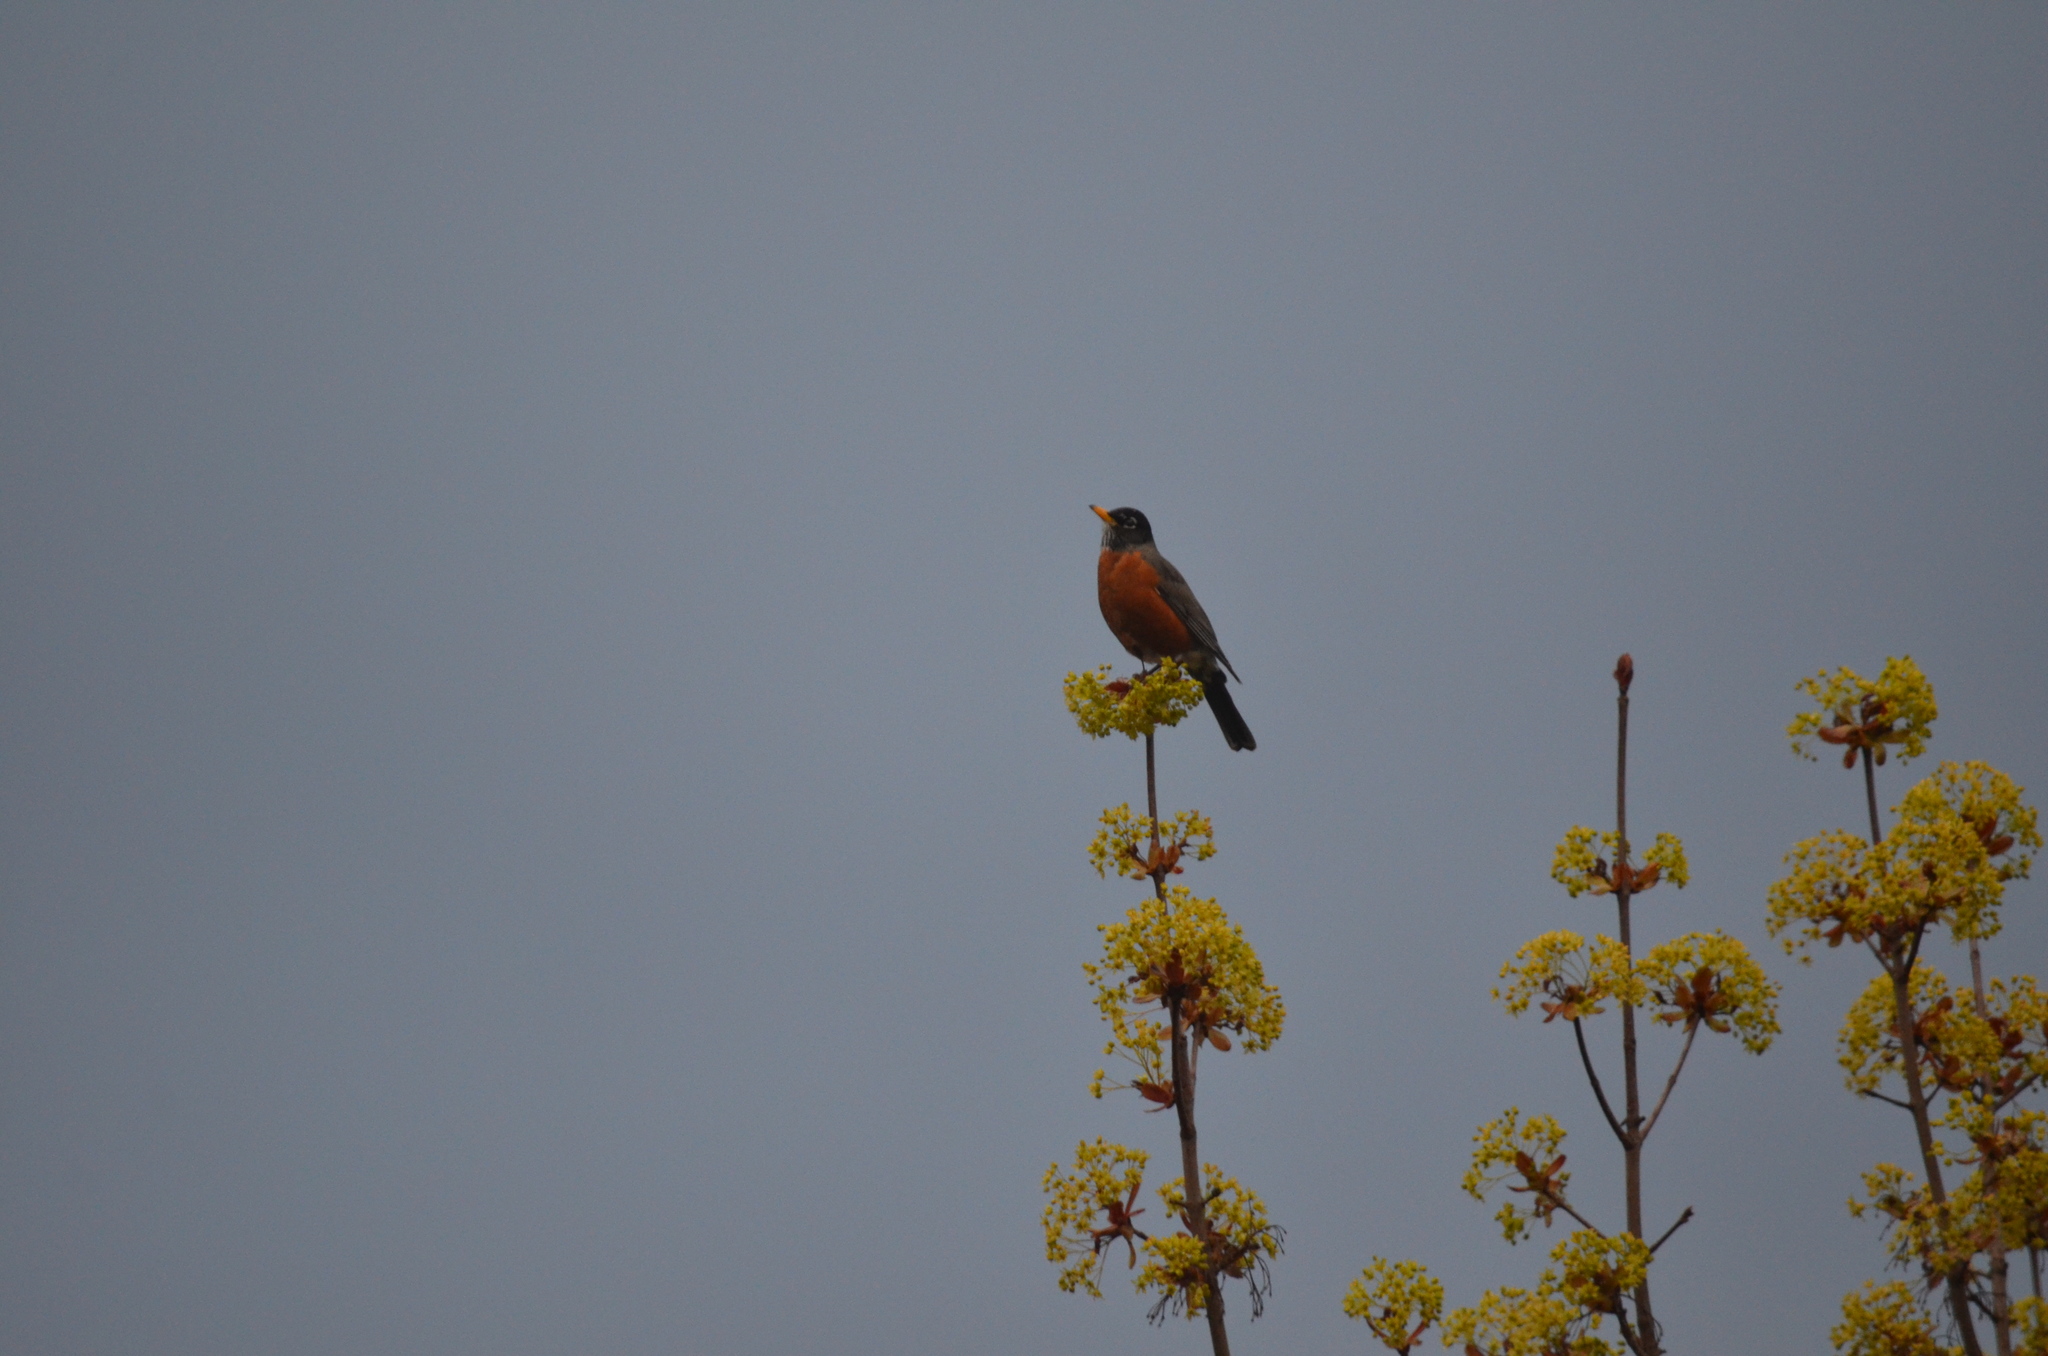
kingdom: Animalia
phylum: Chordata
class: Aves
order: Passeriformes
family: Turdidae
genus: Turdus
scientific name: Turdus migratorius
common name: American robin
